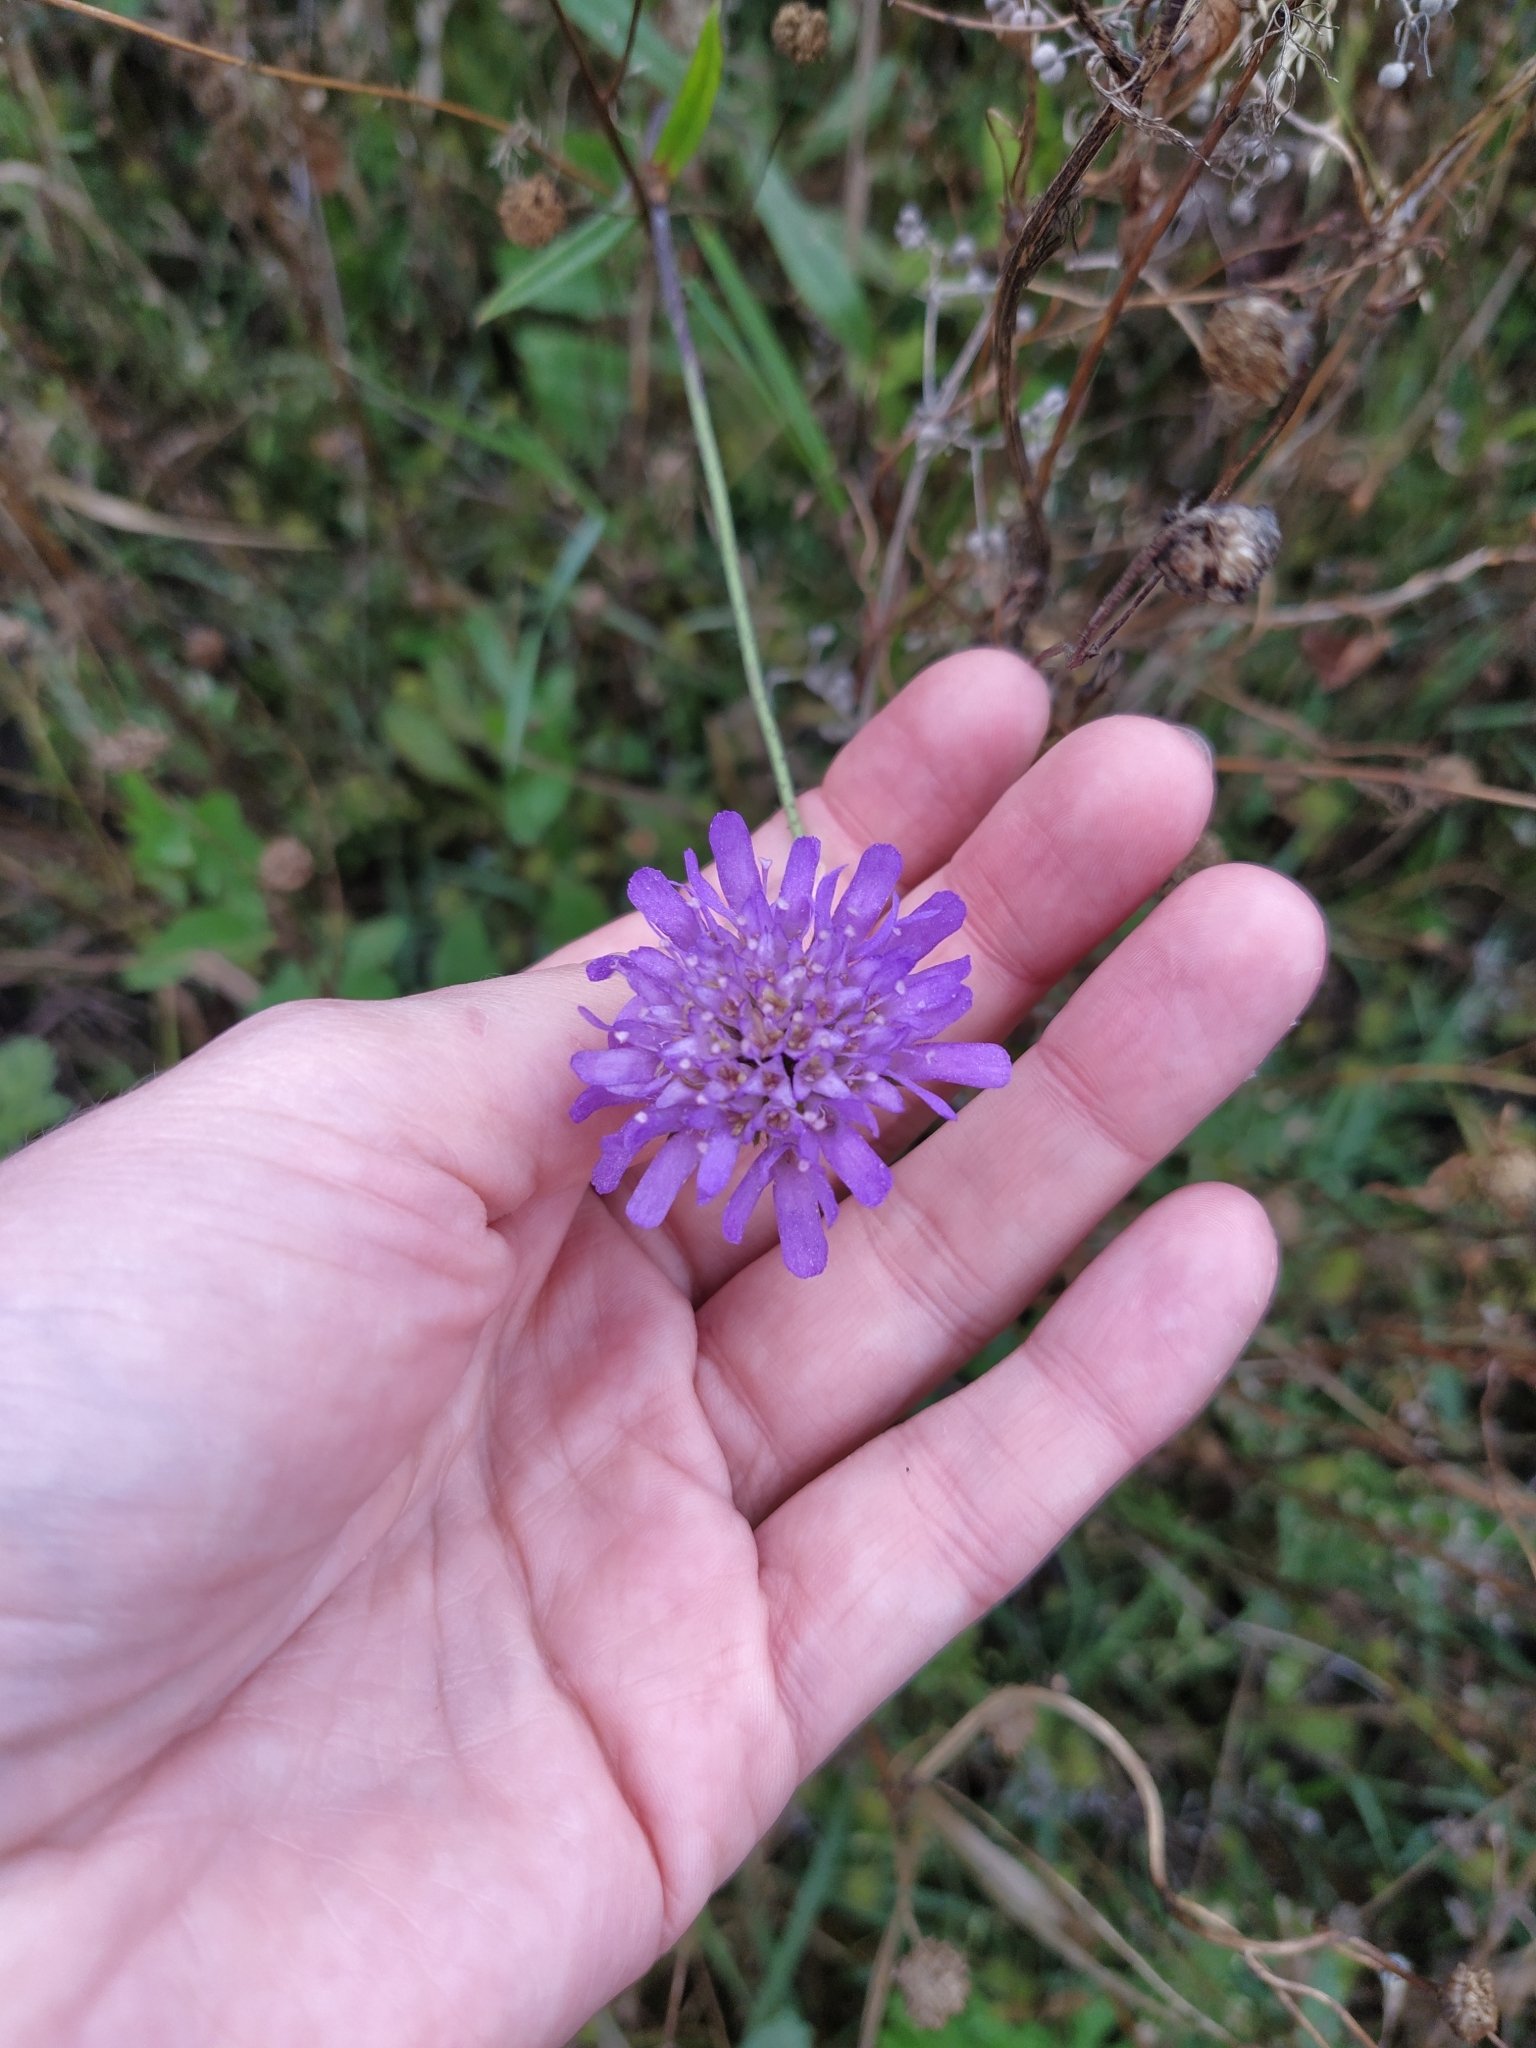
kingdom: Plantae
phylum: Tracheophyta
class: Magnoliopsida
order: Dipsacales
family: Caprifoliaceae
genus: Knautia
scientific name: Knautia arvensis
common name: Field scabiosa
